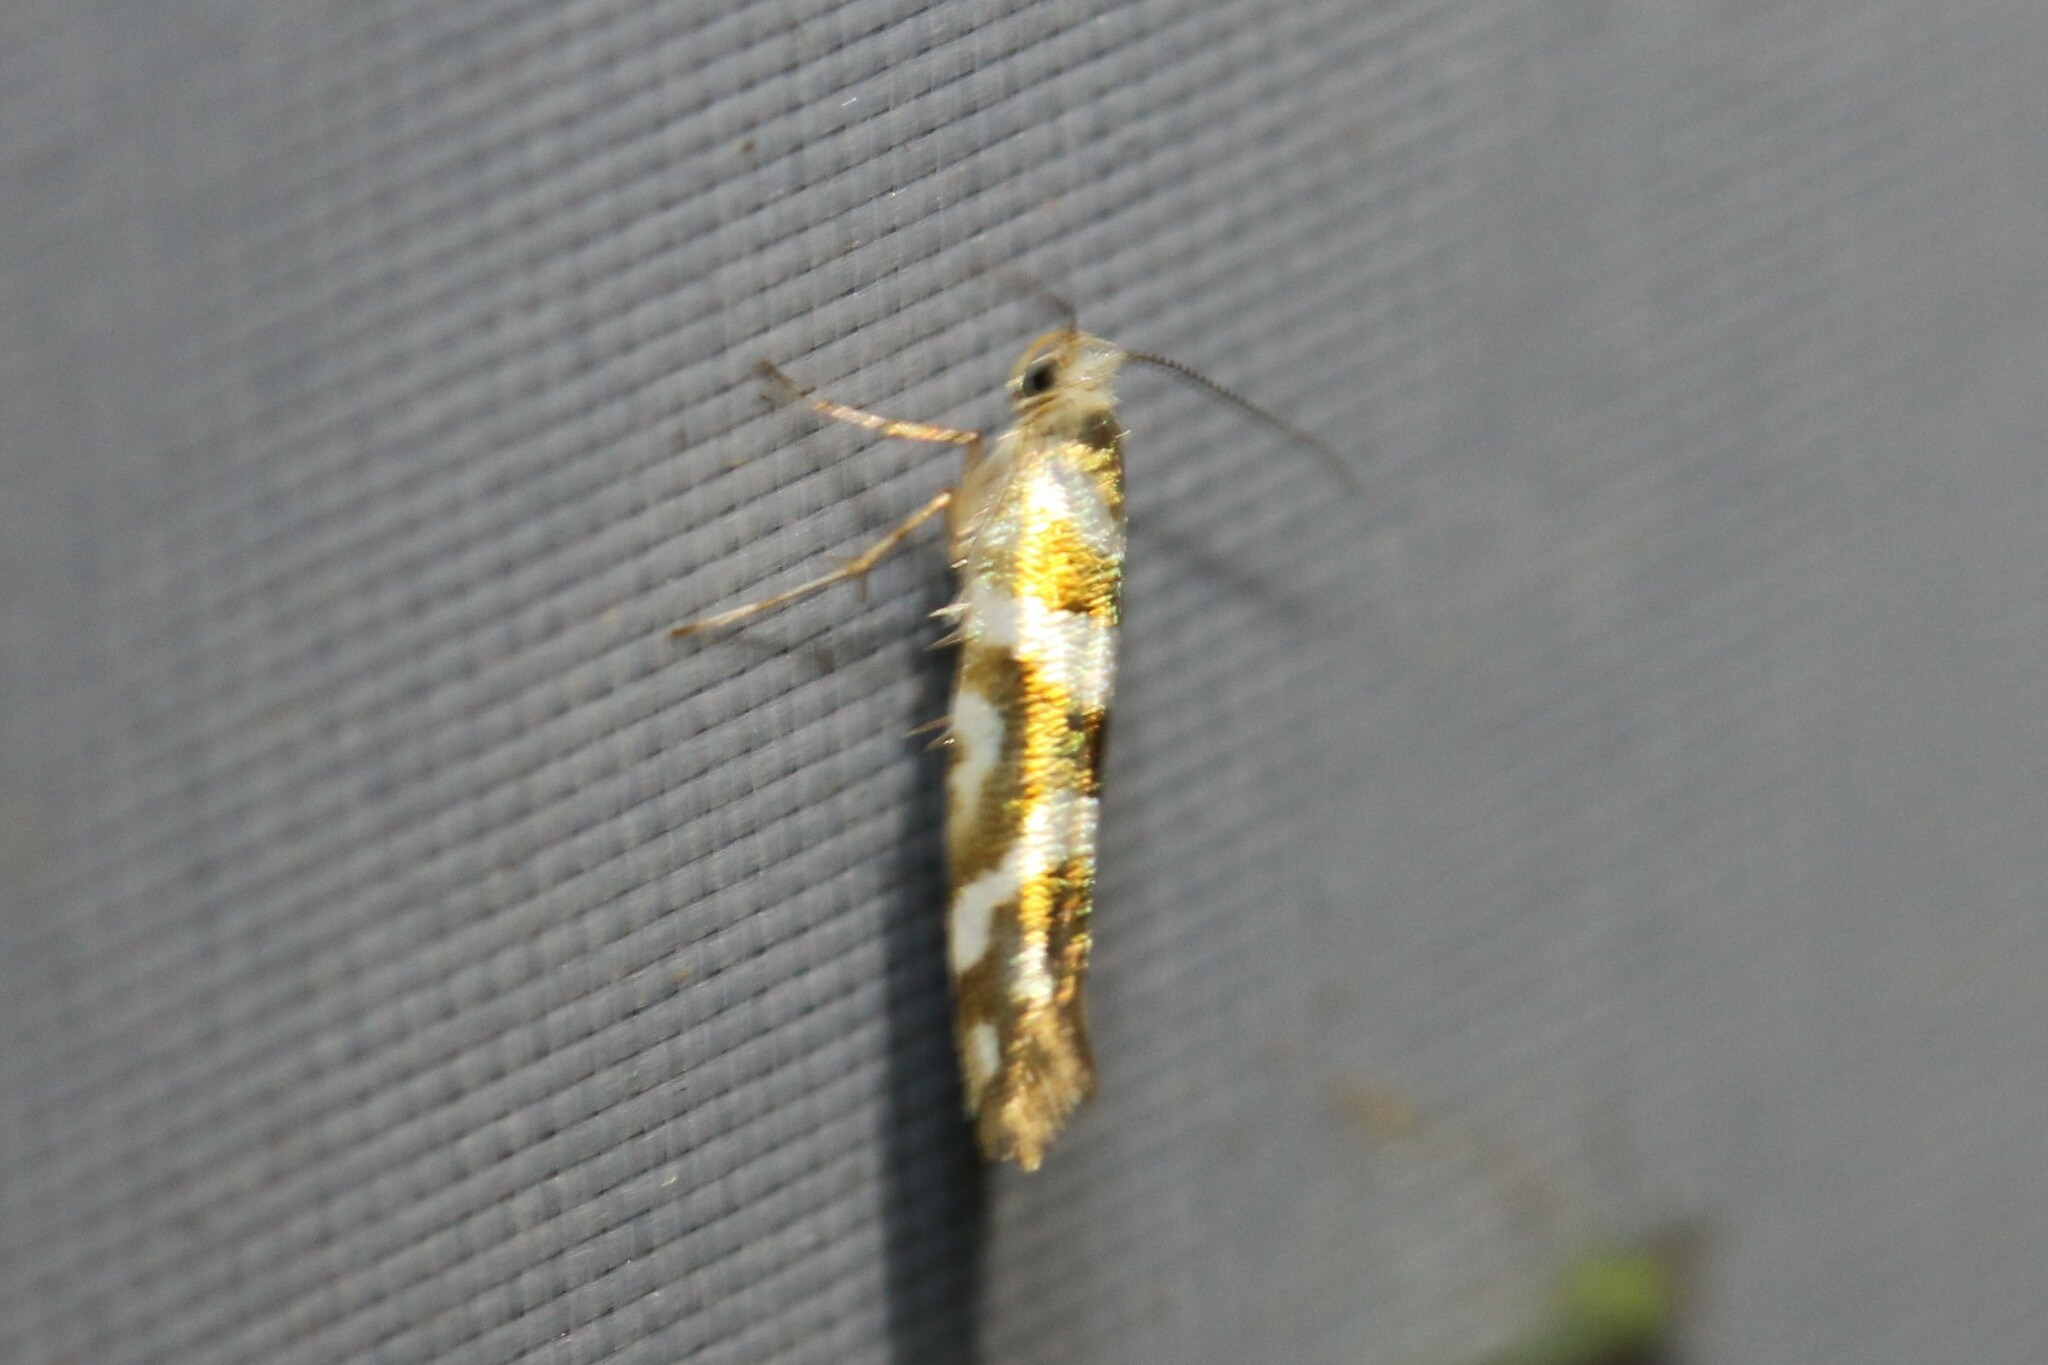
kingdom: Animalia
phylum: Arthropoda
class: Insecta
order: Lepidoptera
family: Argyresthiidae
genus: Argyresthia
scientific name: Argyresthia goedartella
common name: Golden argent
